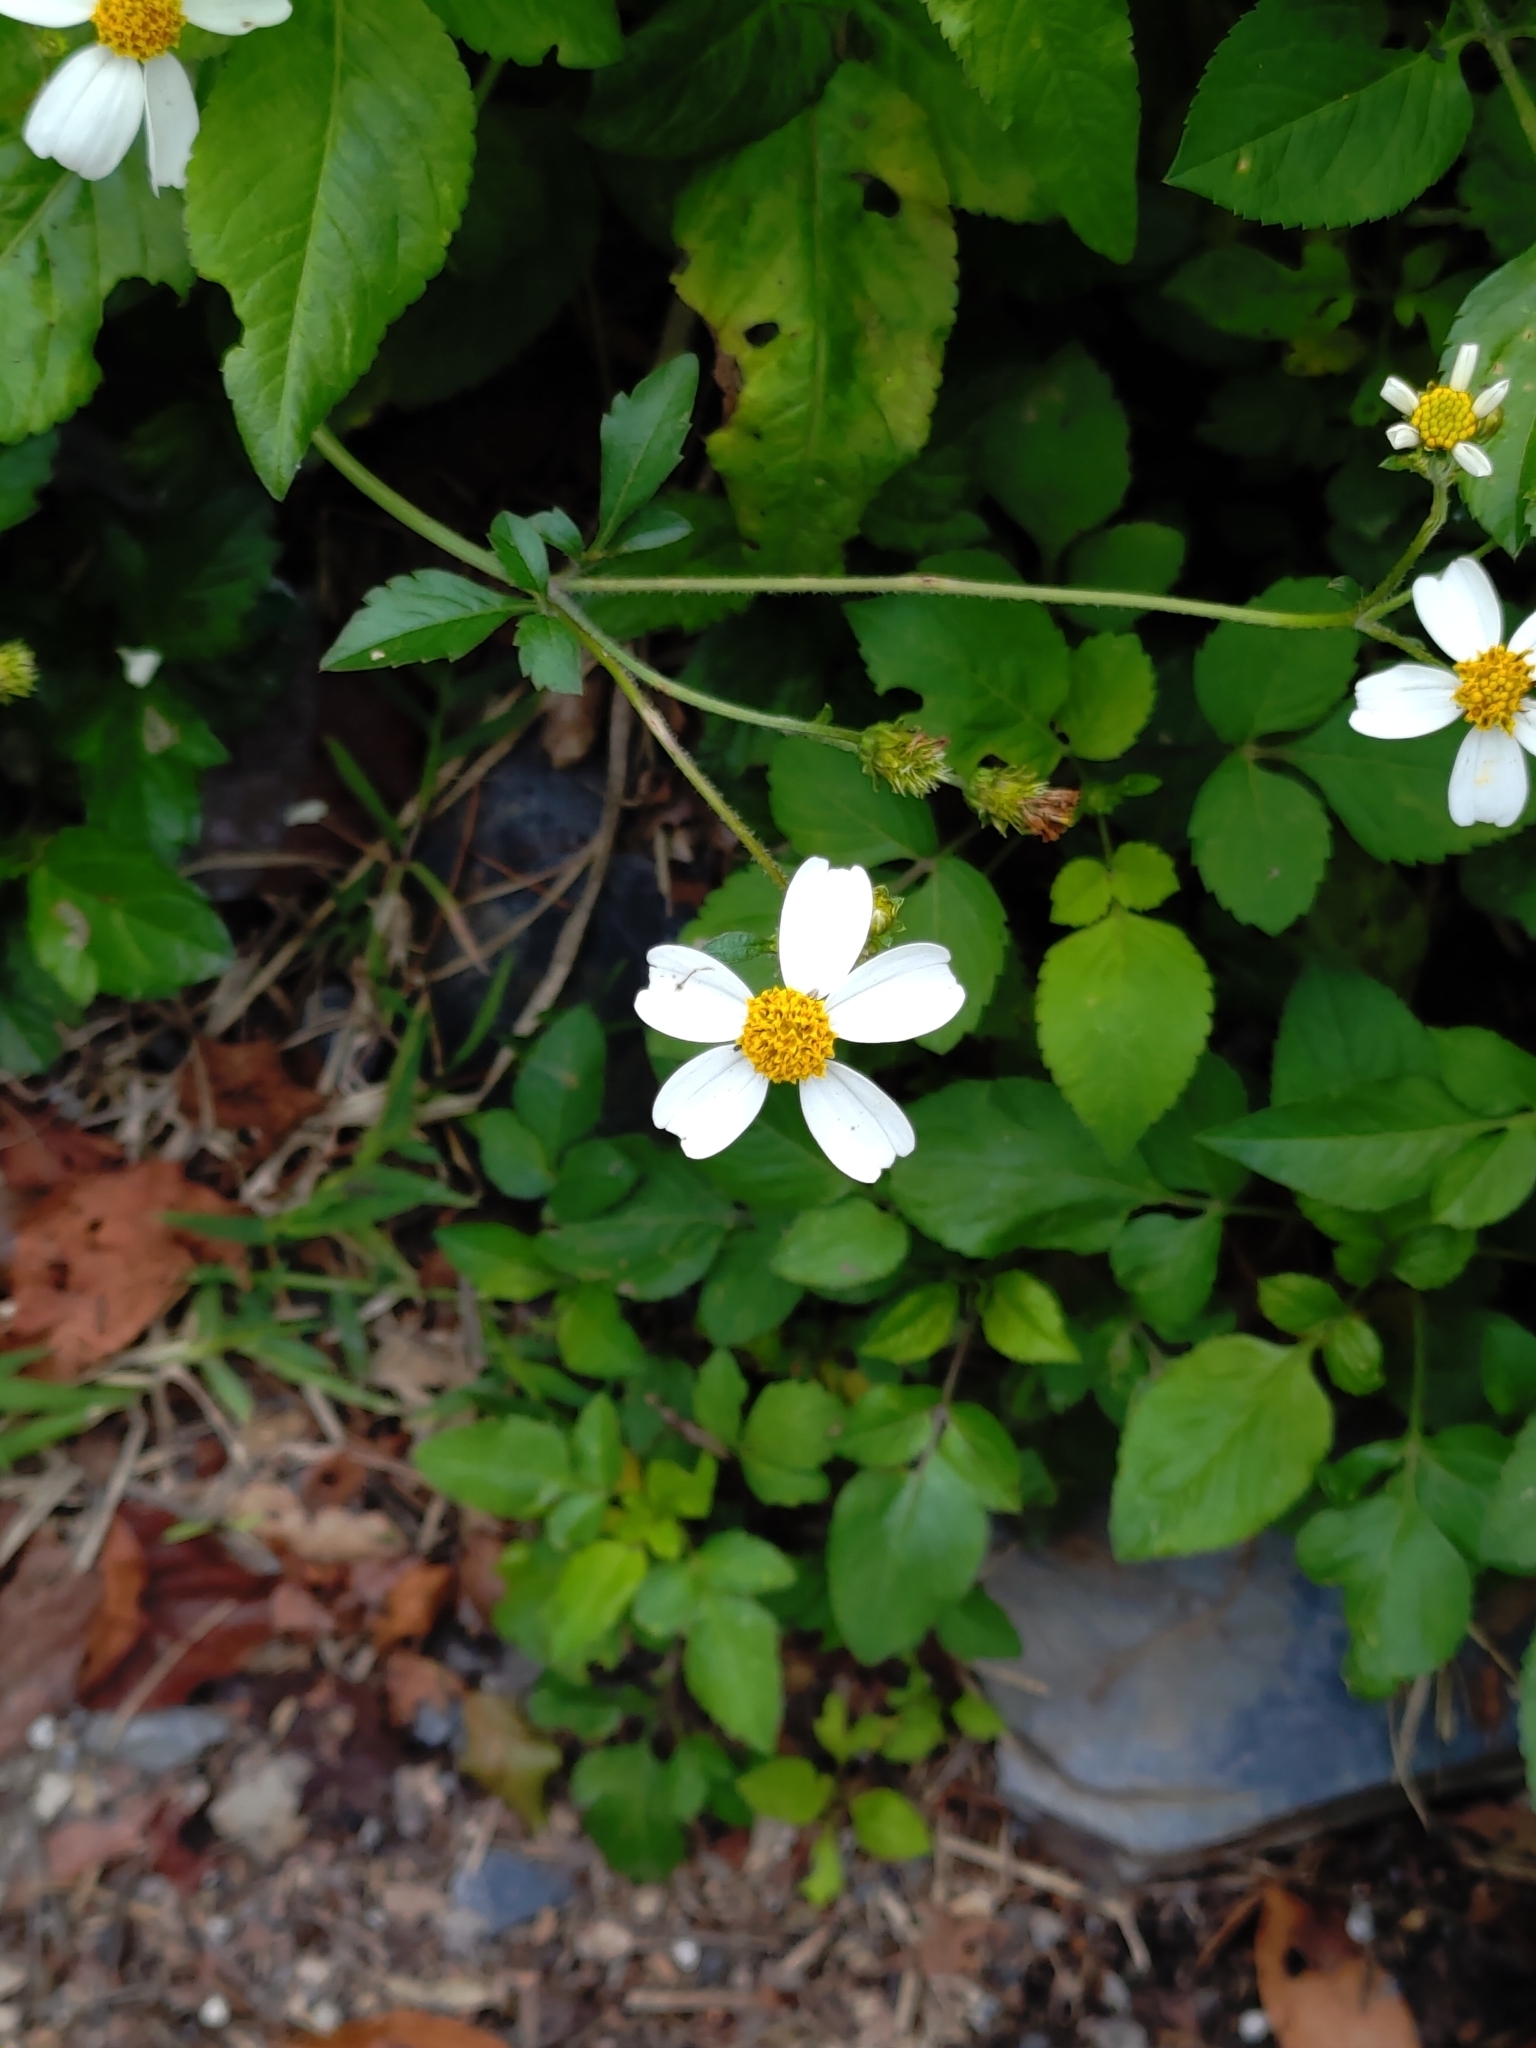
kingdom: Plantae
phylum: Tracheophyta
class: Magnoliopsida
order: Asterales
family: Asteraceae
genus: Bidens
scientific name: Bidens alba
